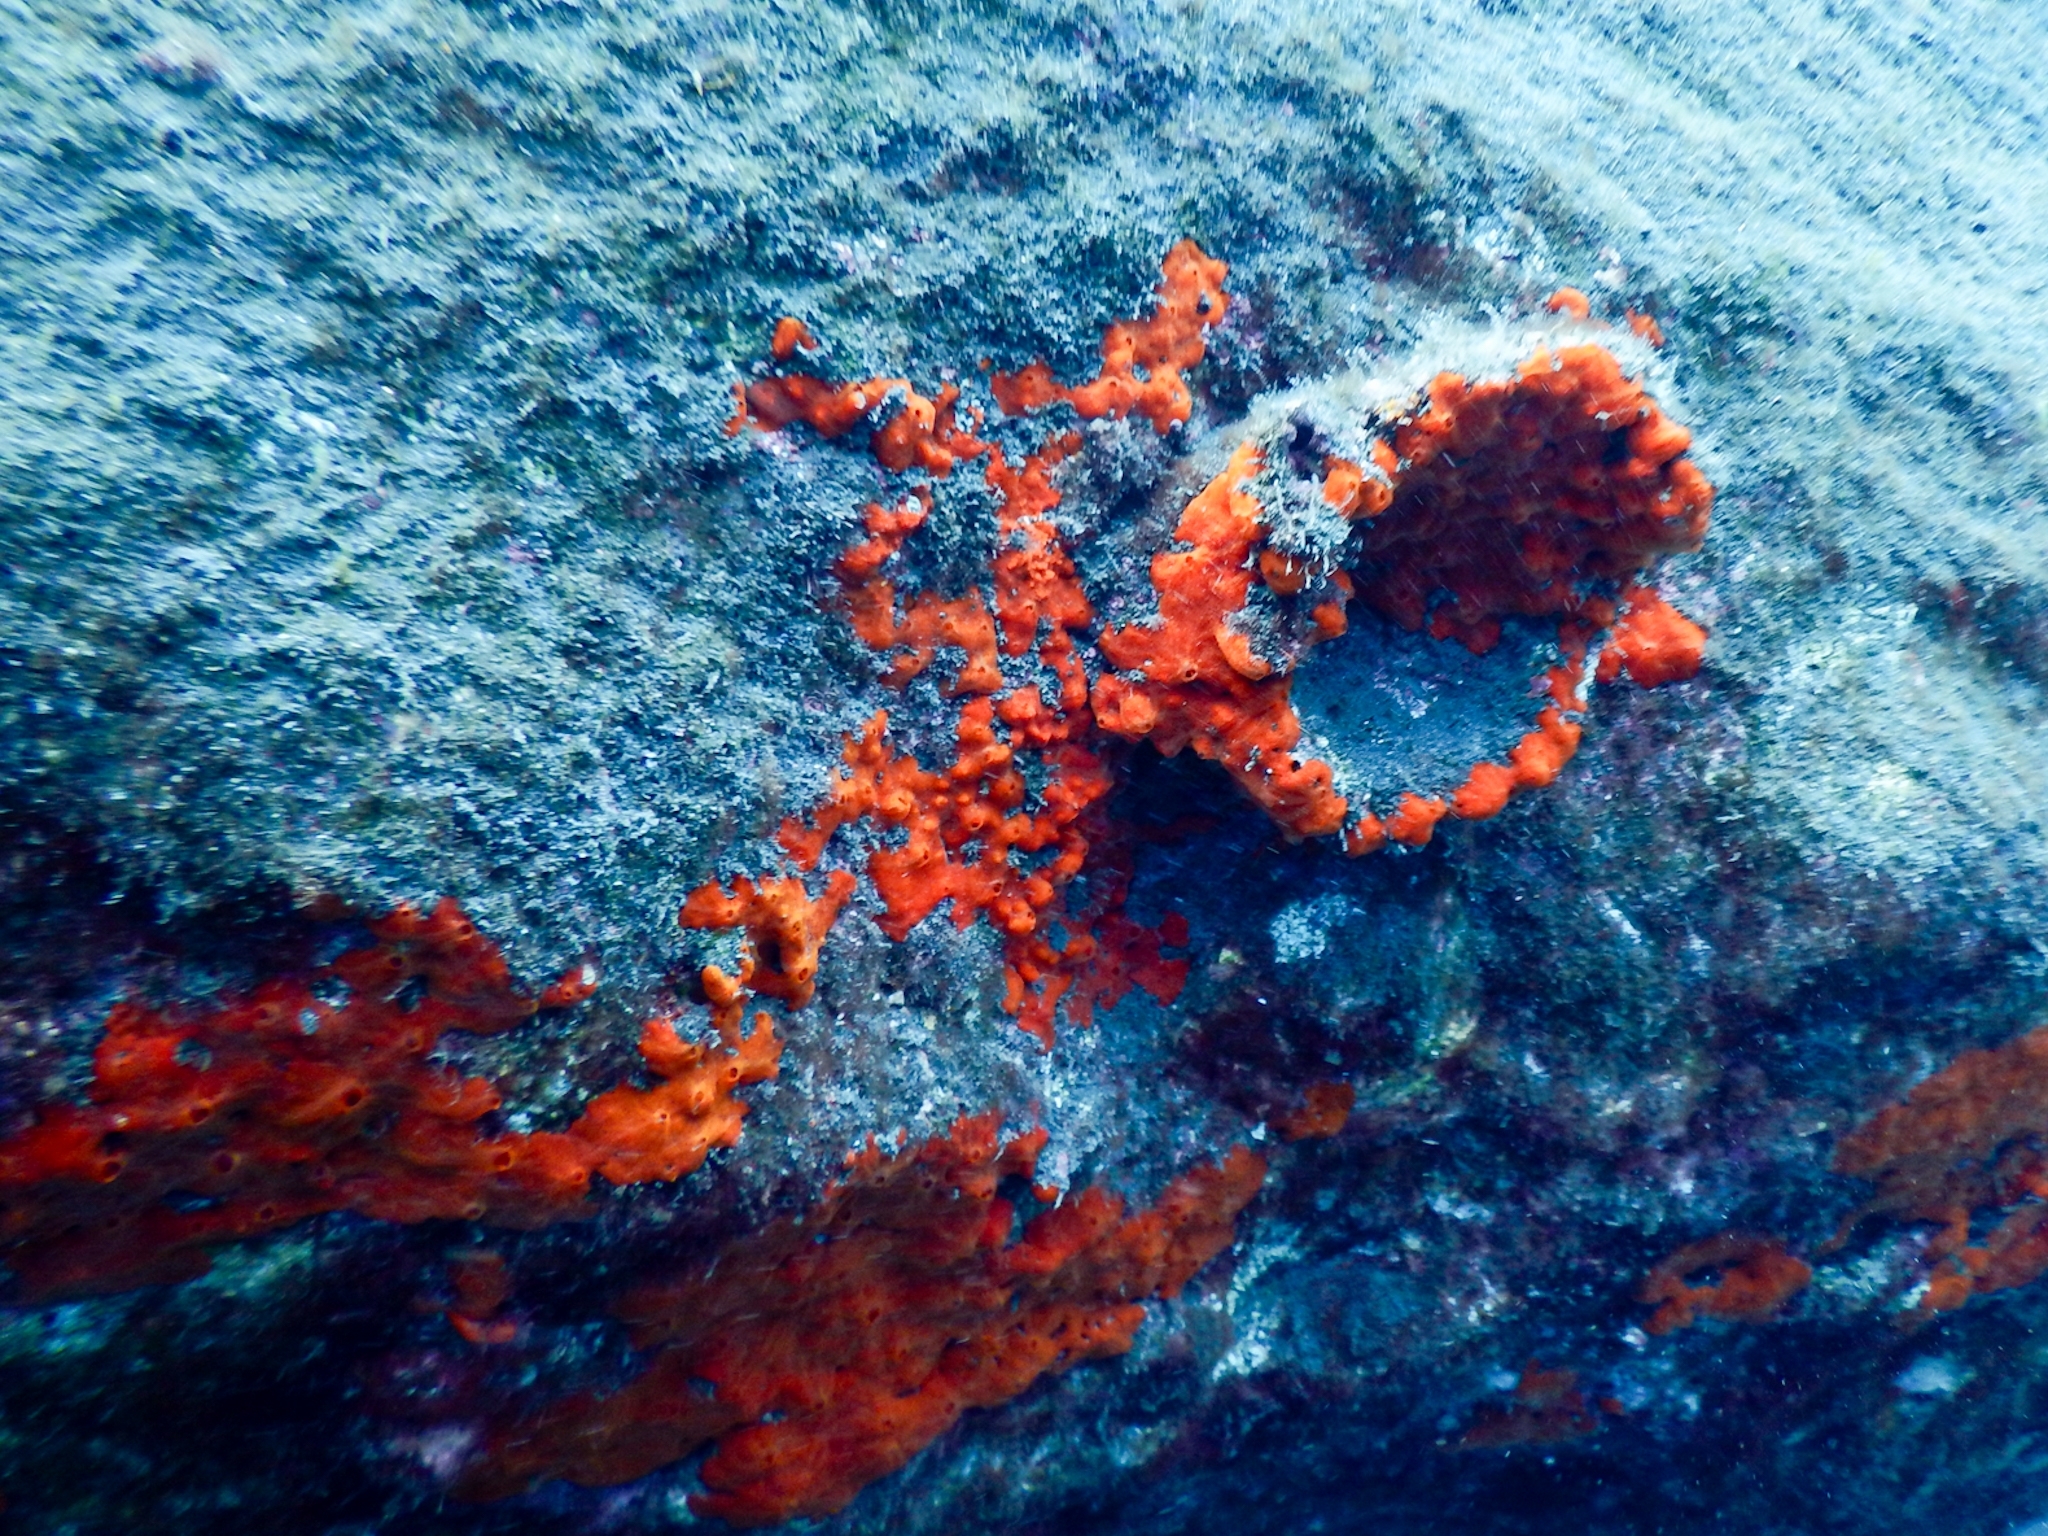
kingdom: Animalia
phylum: Porifera
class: Demospongiae
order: Poecilosclerida
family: Crambeidae
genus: Crambe
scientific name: Crambe crambe
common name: Orange-red encrusting sponge
